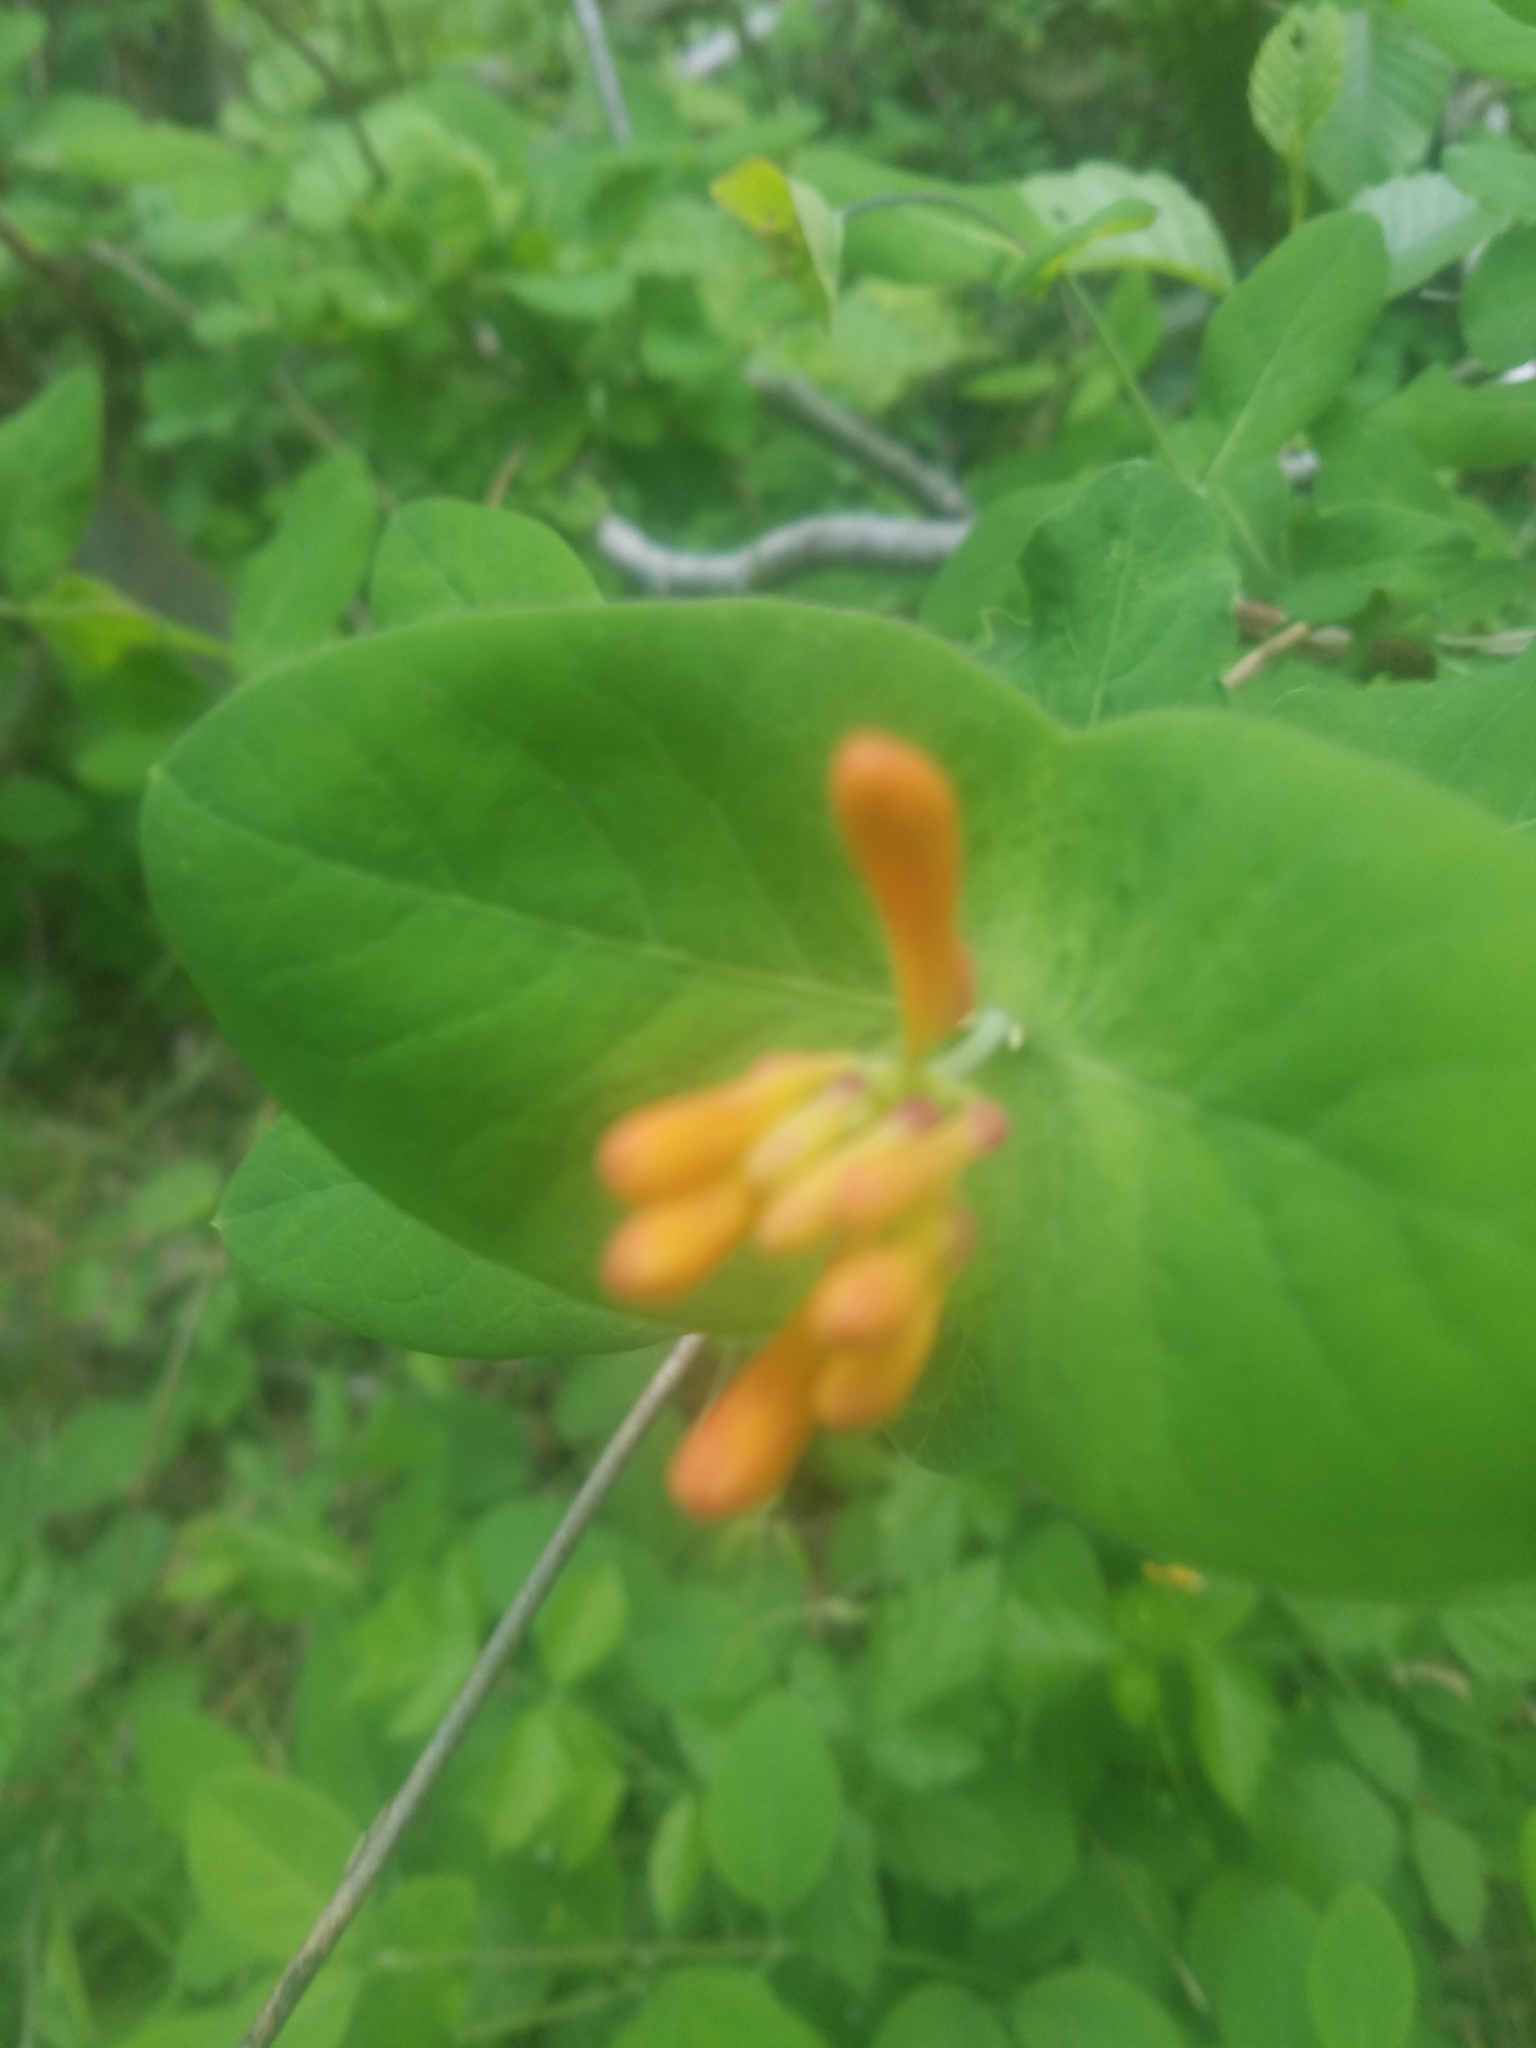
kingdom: Plantae
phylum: Tracheophyta
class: Magnoliopsida
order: Dipsacales
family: Caprifoliaceae
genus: Lonicera
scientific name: Lonicera ciliosa
